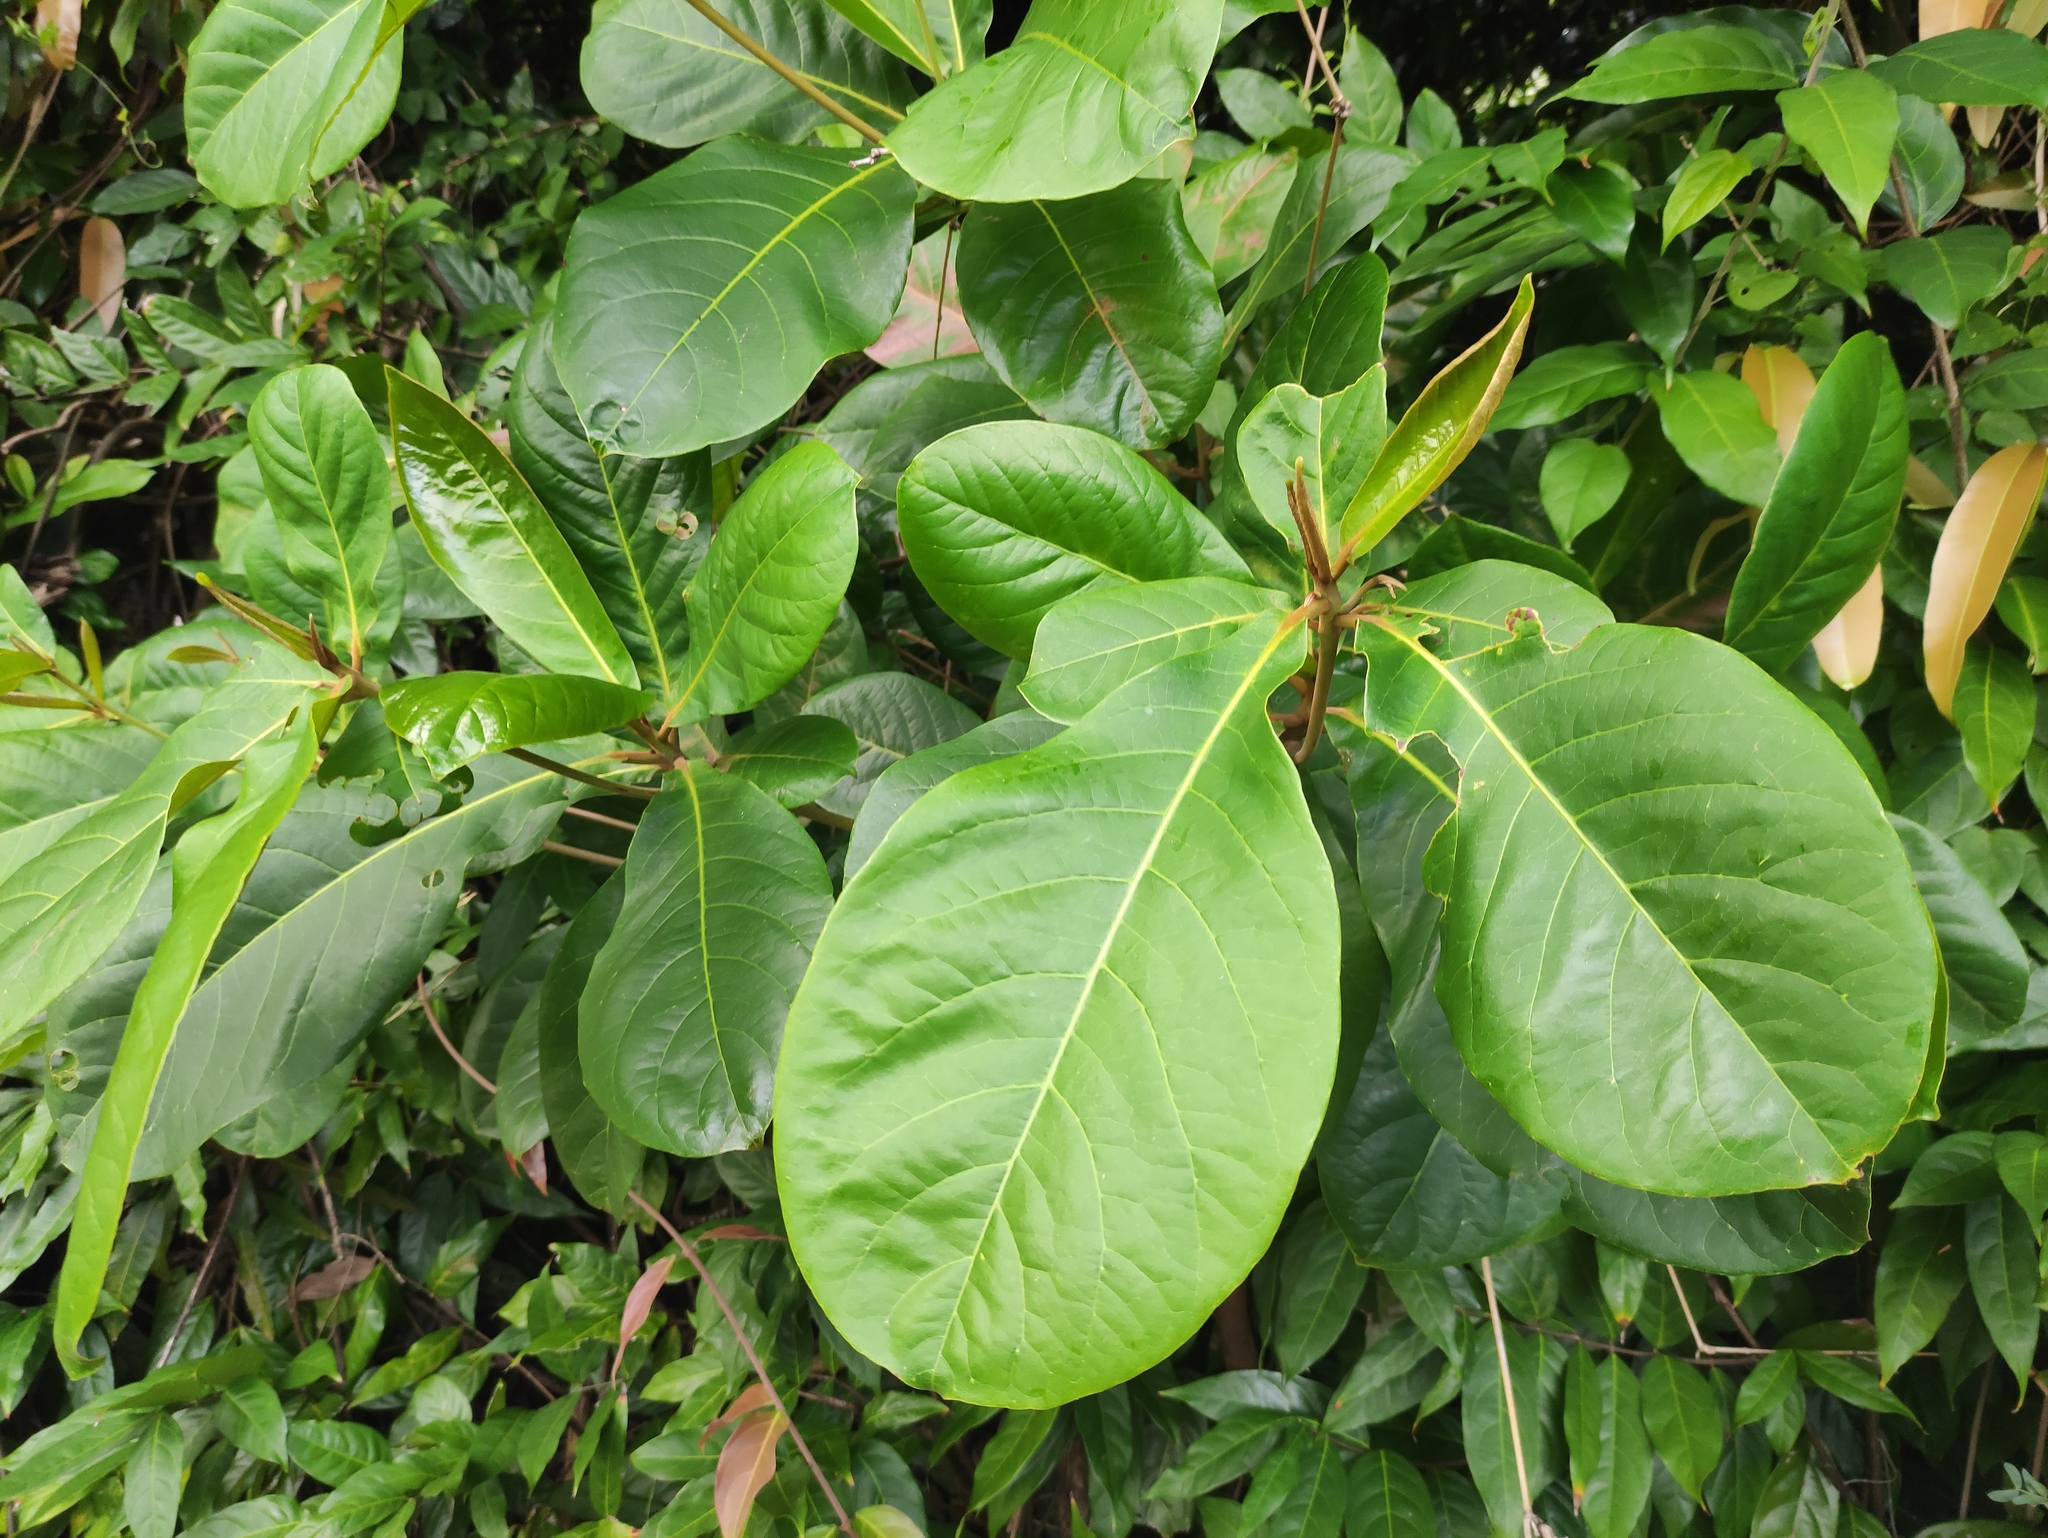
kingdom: Plantae
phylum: Tracheophyta
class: Magnoliopsida
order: Myrtales
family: Combretaceae
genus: Terminalia
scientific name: Terminalia catappa
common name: Tropical almond
